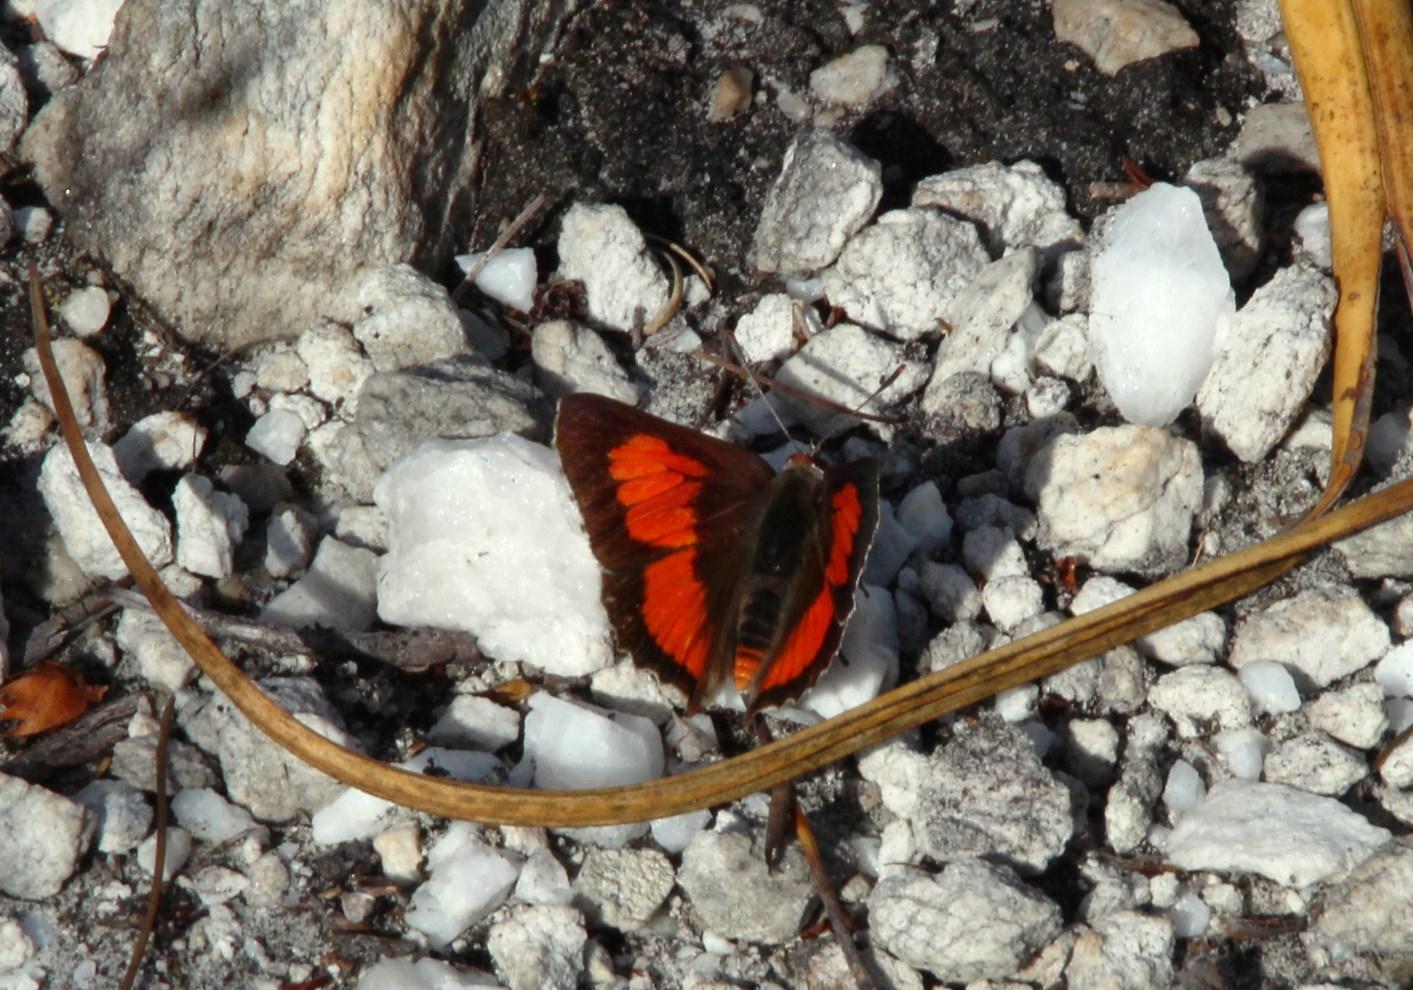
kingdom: Animalia
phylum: Arthropoda
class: Insecta
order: Lepidoptera
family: Lycaenidae
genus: Capys
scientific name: Capys alpheus
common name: Orange-banded protea butterfly
